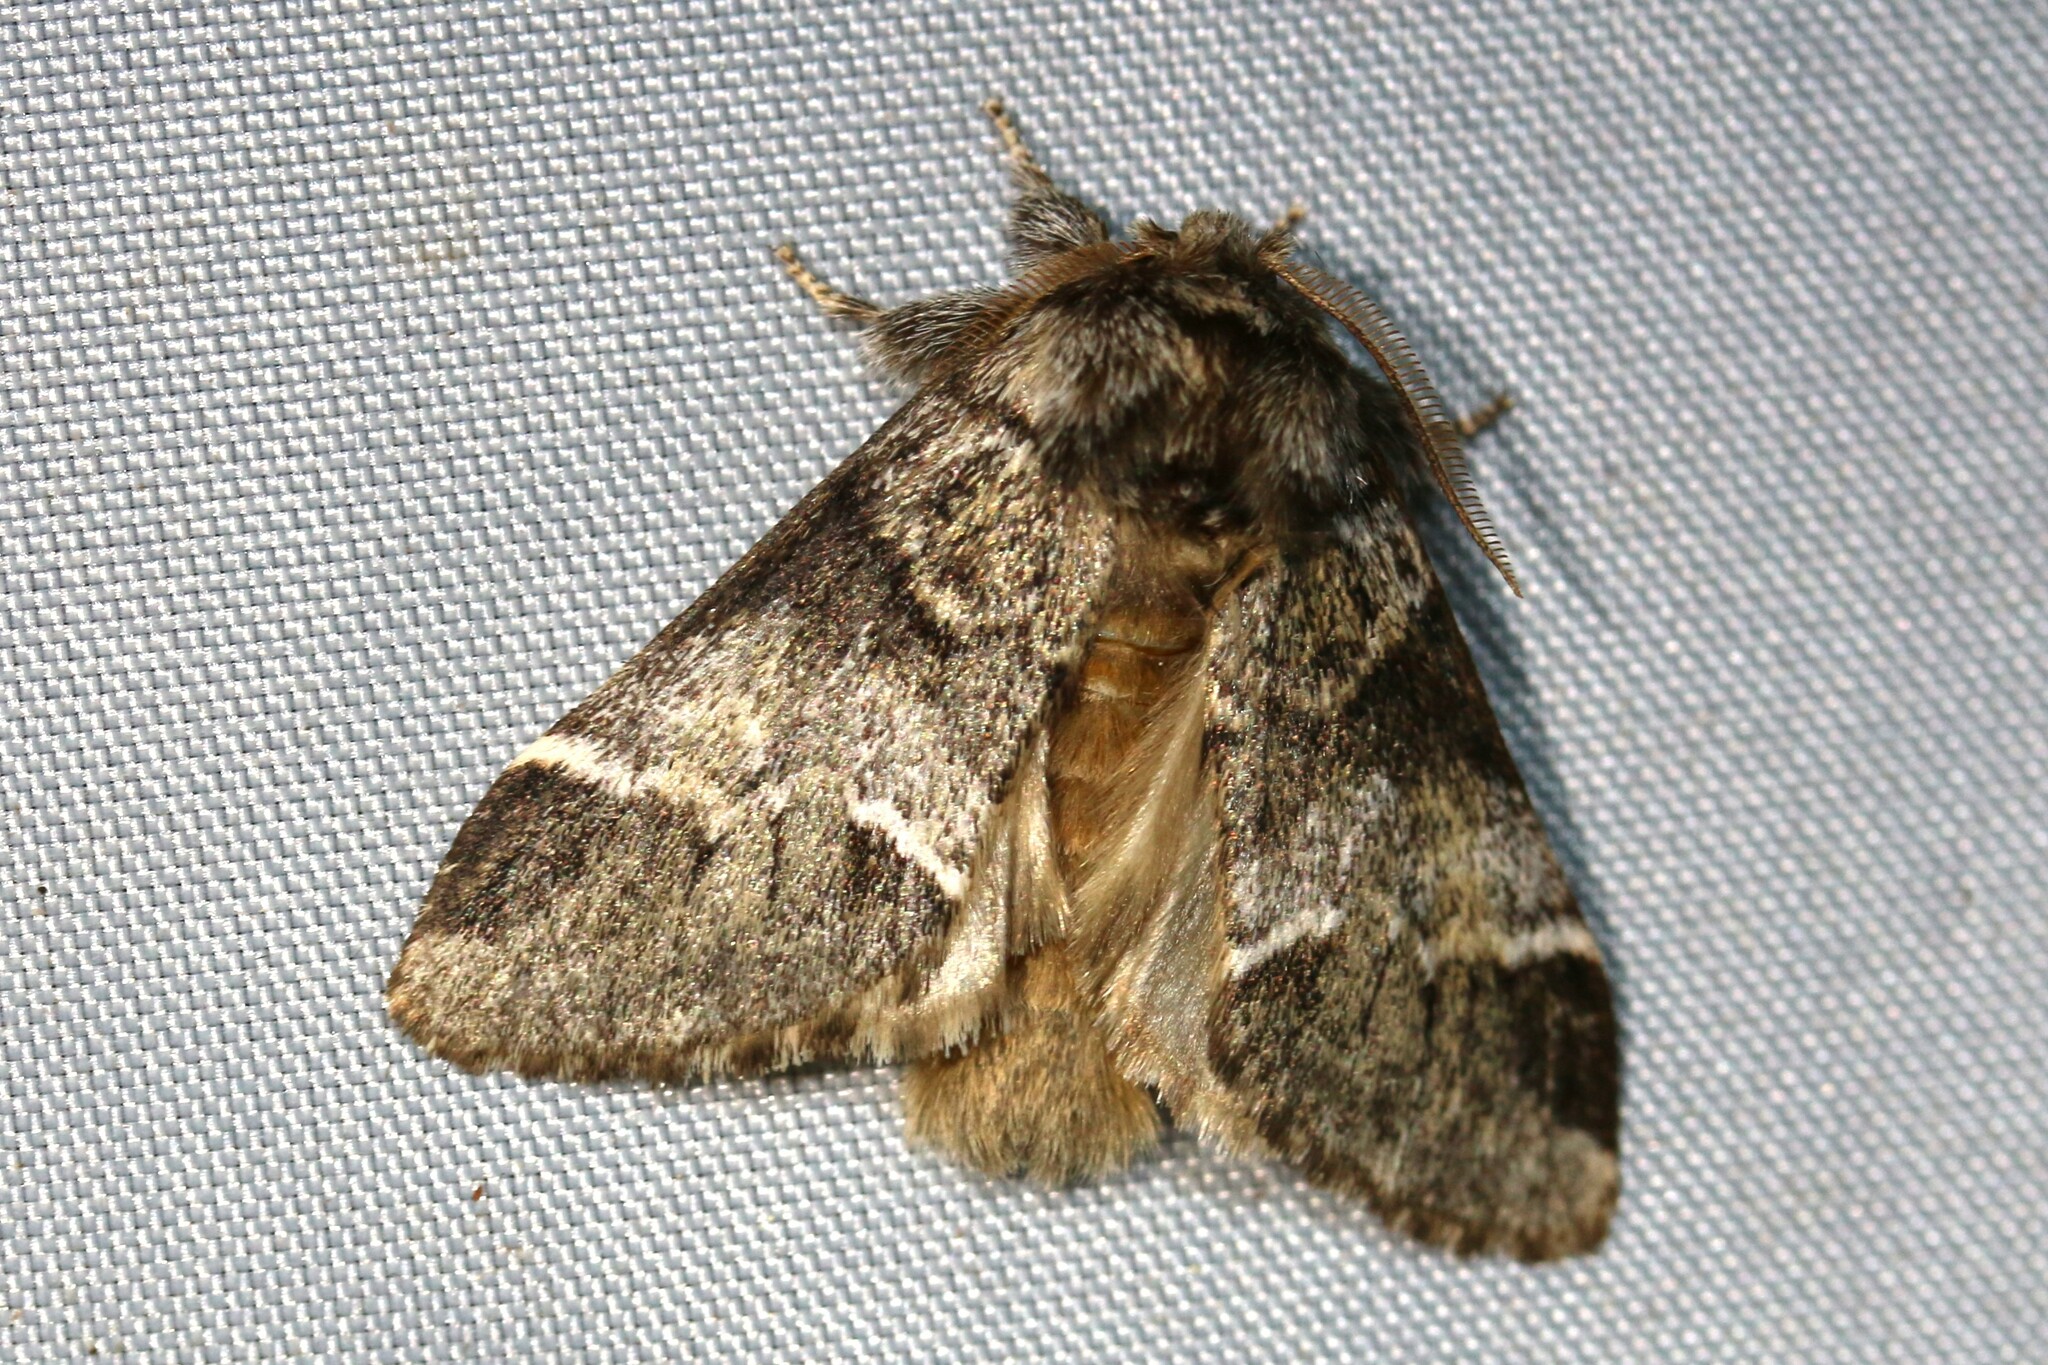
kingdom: Animalia
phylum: Arthropoda
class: Insecta
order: Lepidoptera
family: Notodontidae
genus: Drymonia
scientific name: Drymonia dodonaea
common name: Marbled brown
